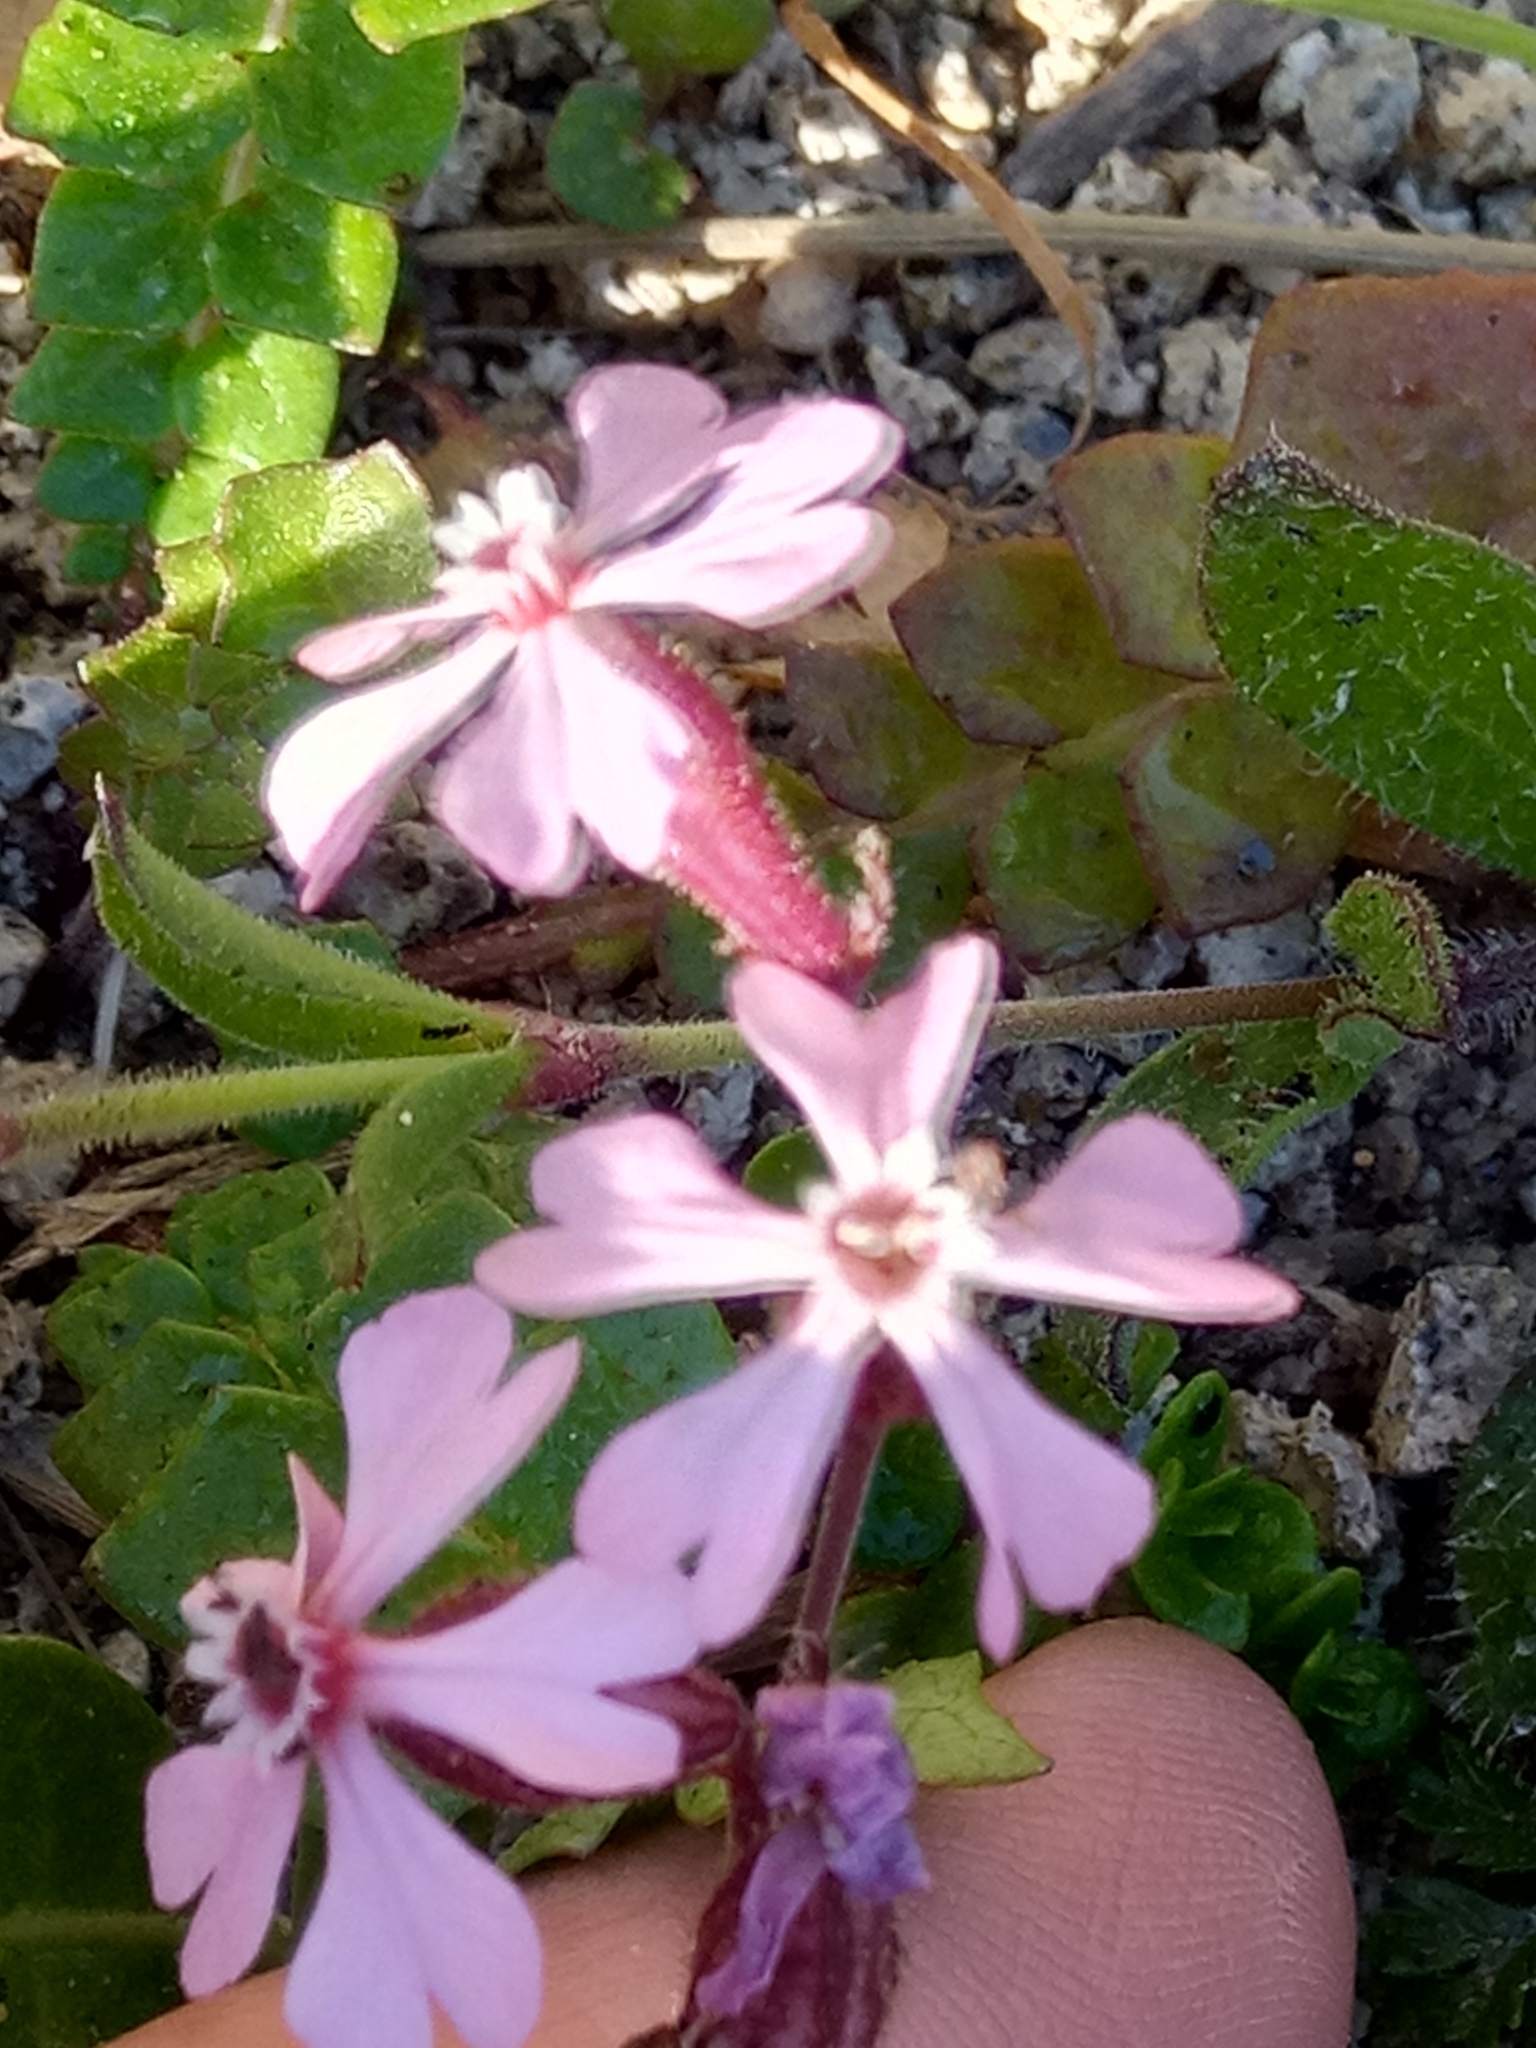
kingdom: Plantae
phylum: Tracheophyta
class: Magnoliopsida
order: Caryophyllales
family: Caryophyllaceae
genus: Silene
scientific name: Silene neglecta
